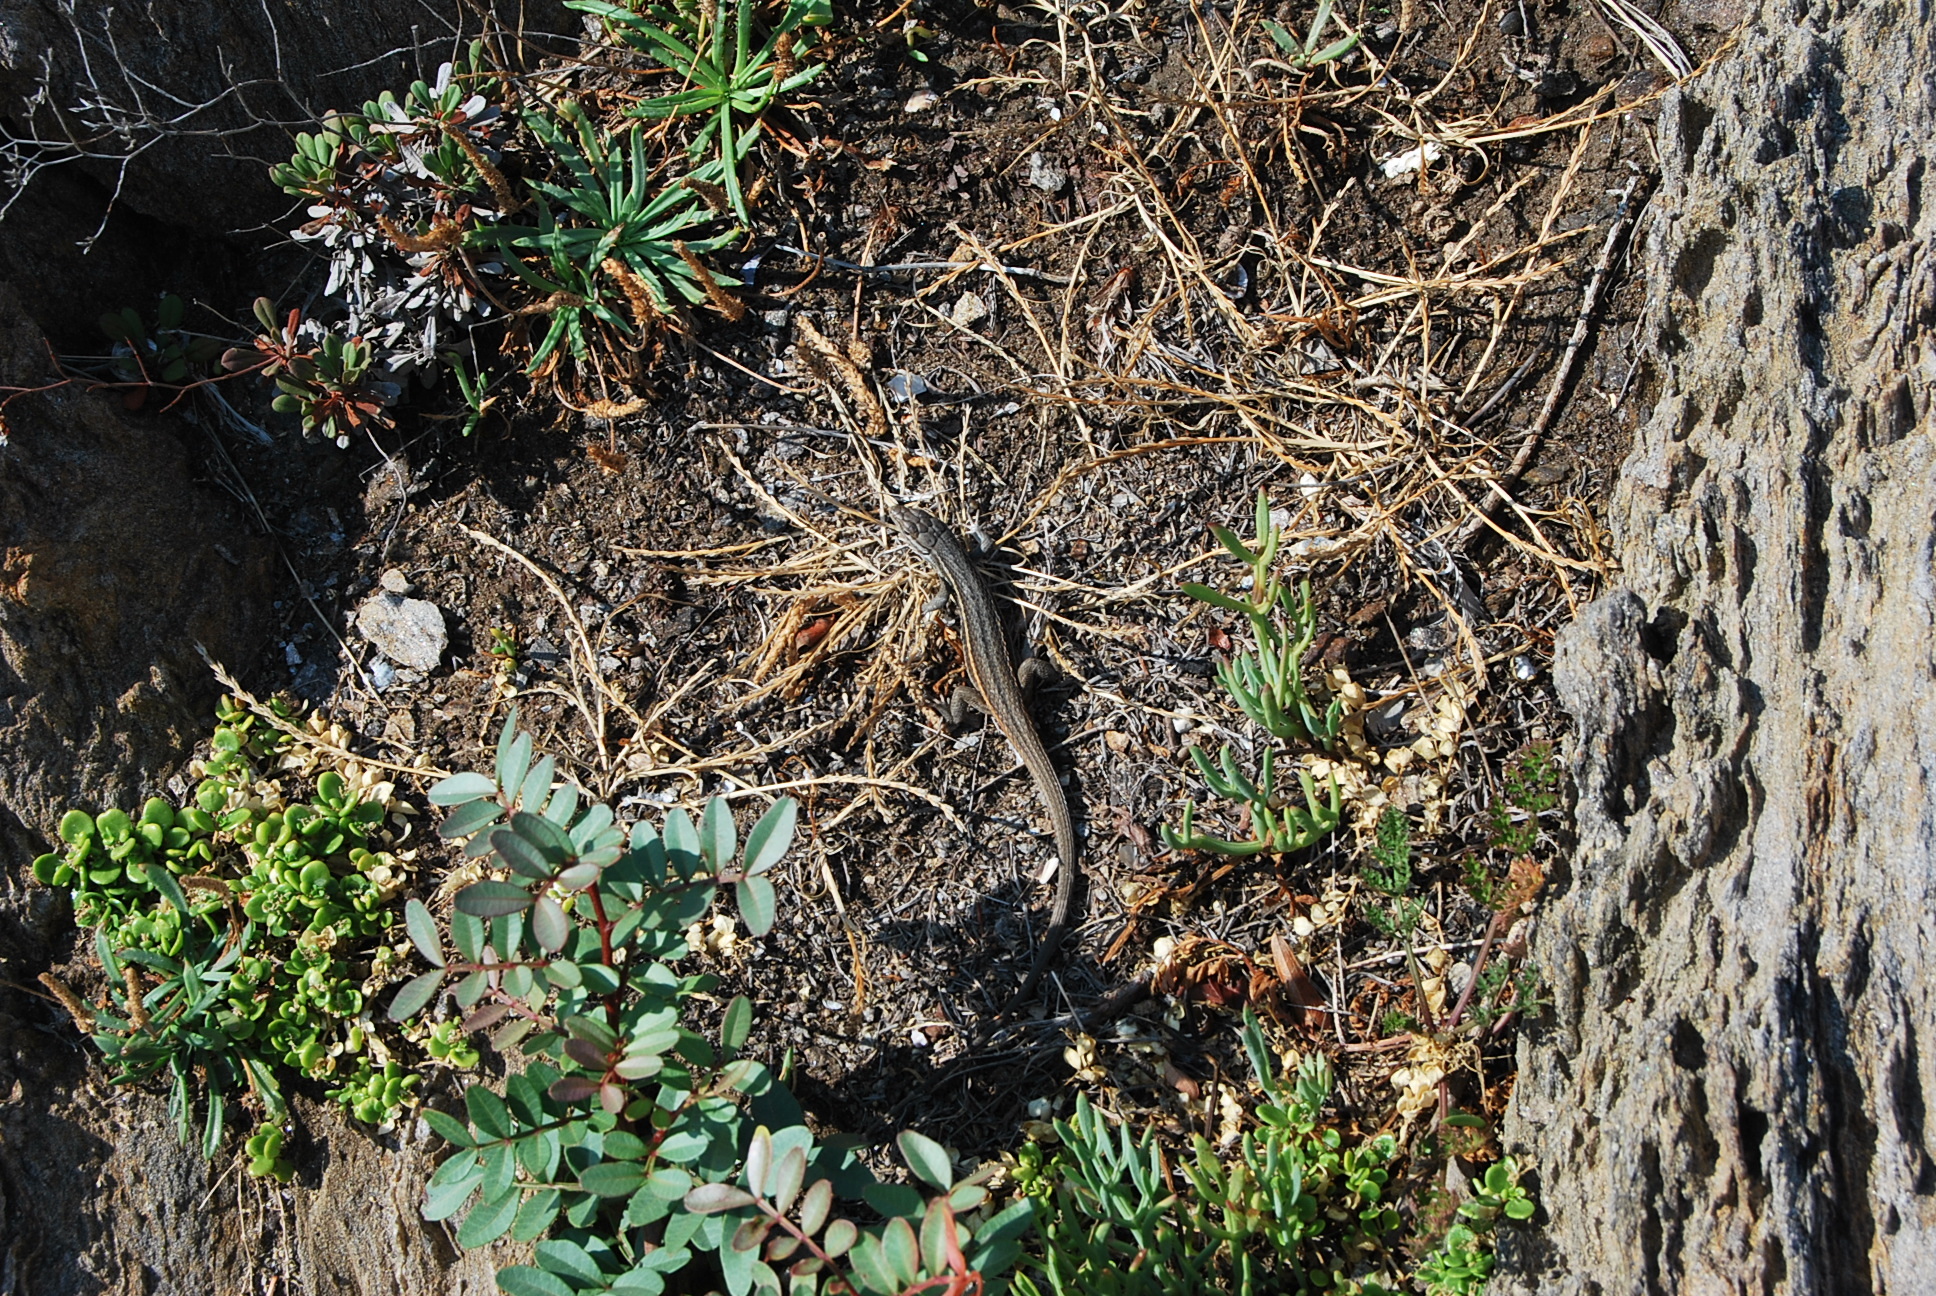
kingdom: Animalia
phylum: Chordata
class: Squamata
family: Lacertidae
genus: Psammodromus
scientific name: Psammodromus algirus
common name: Algerian psammodromus
